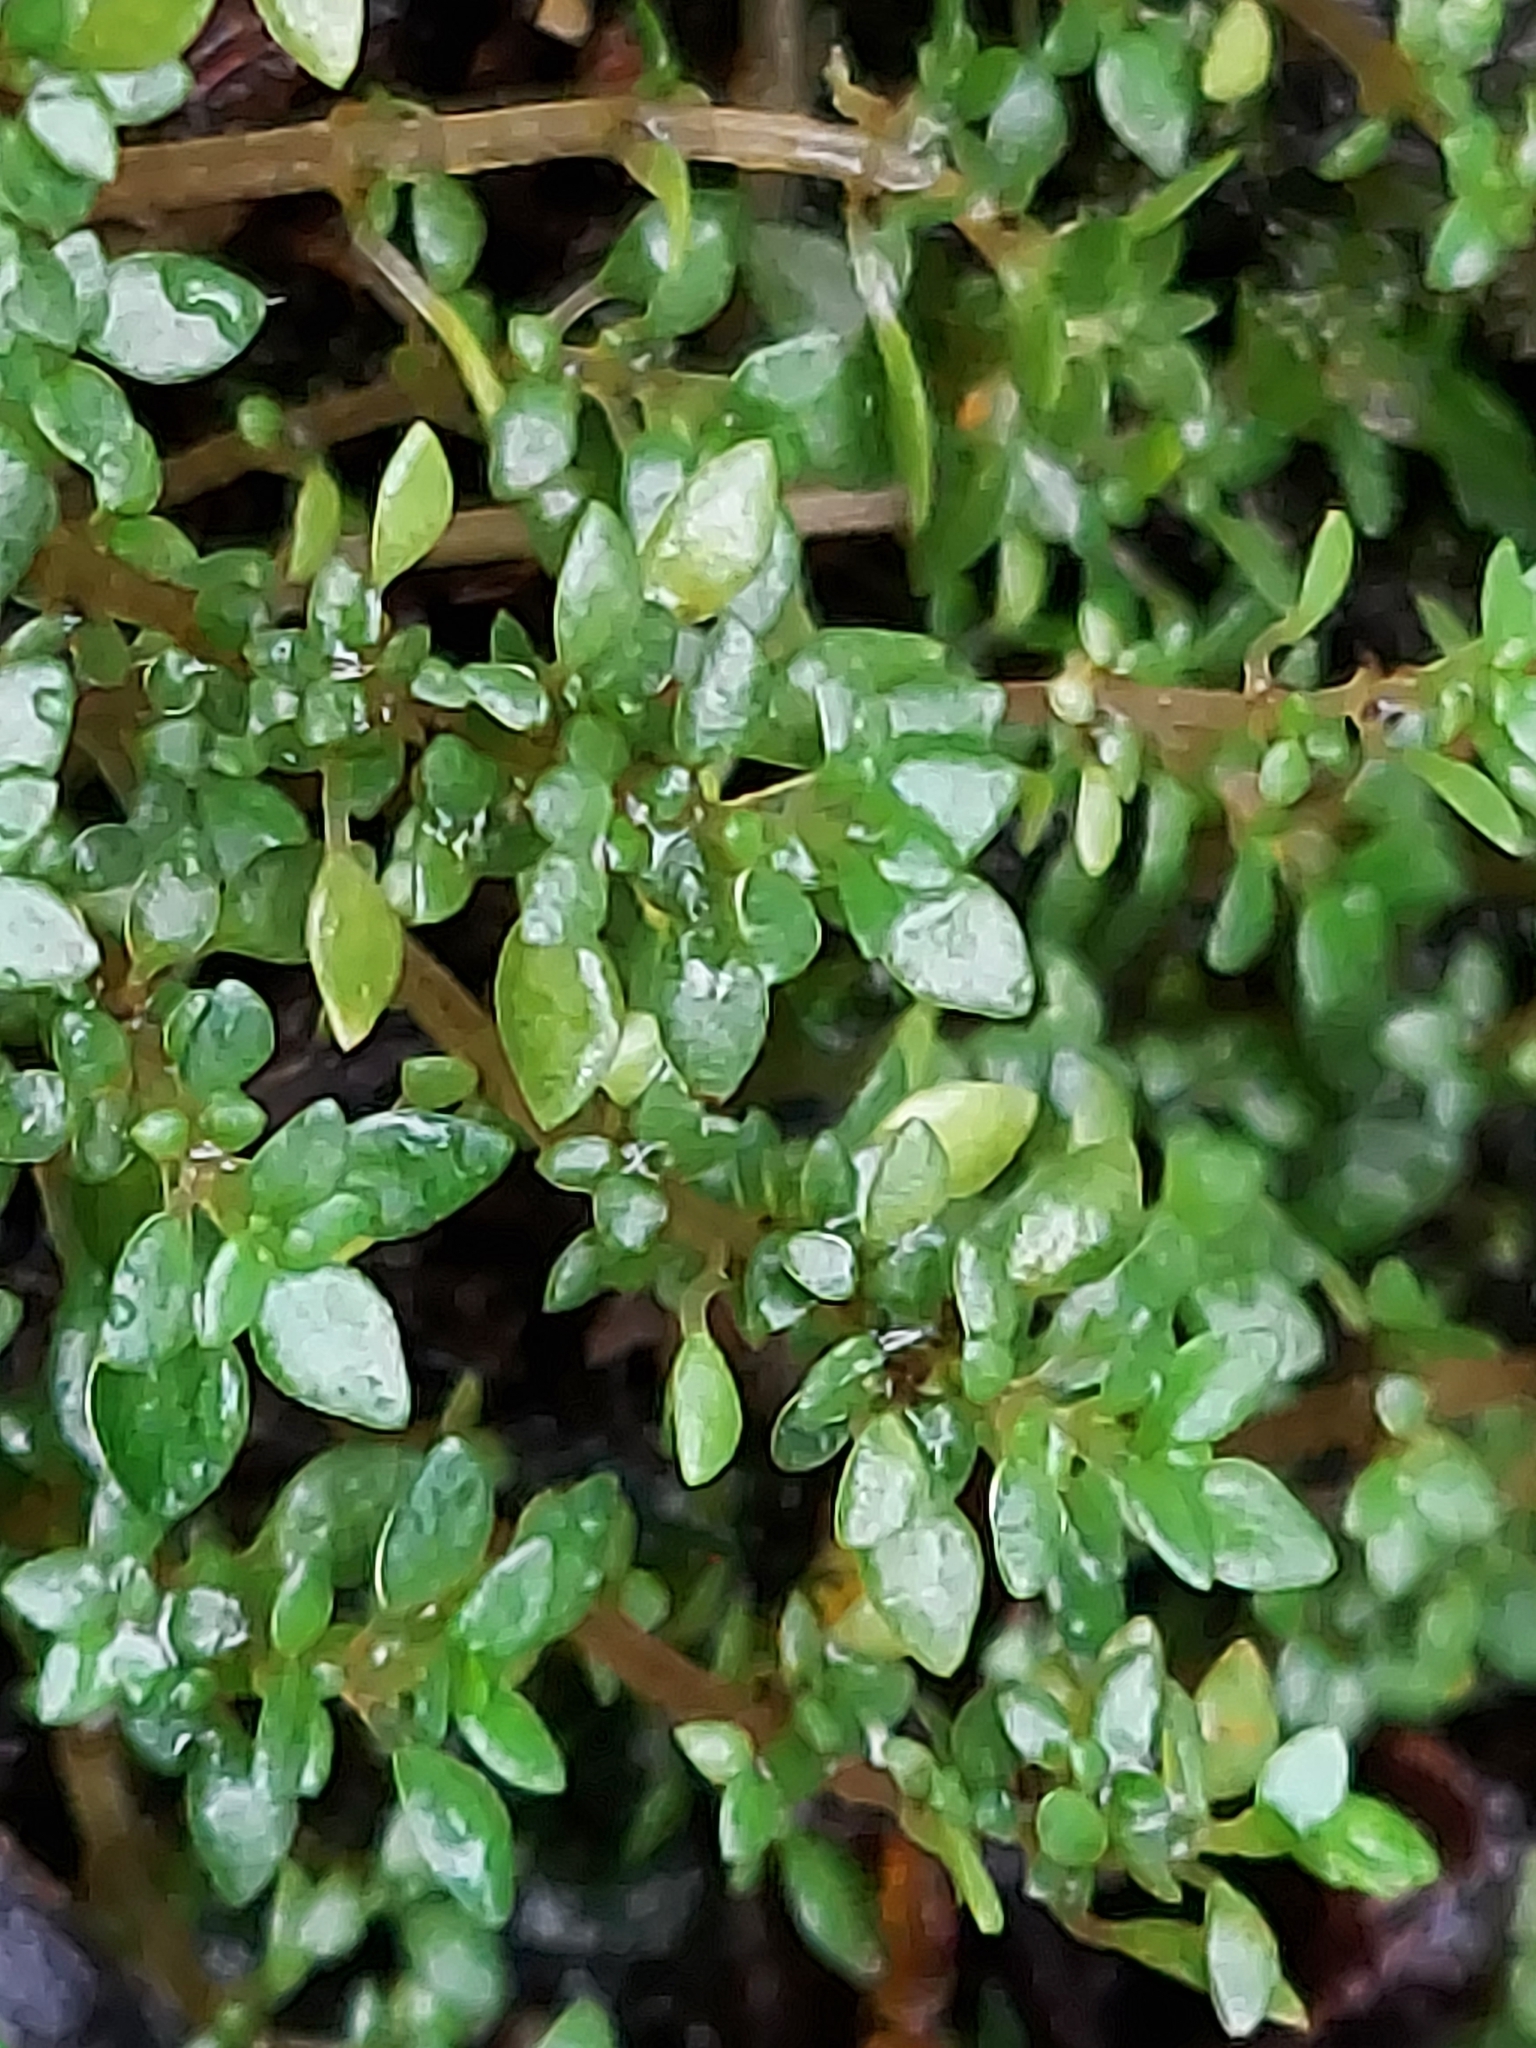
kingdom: Plantae
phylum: Tracheophyta
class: Magnoliopsida
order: Rosales
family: Urticaceae
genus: Pilea
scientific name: Pilea microphylla
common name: Artillery-plant
